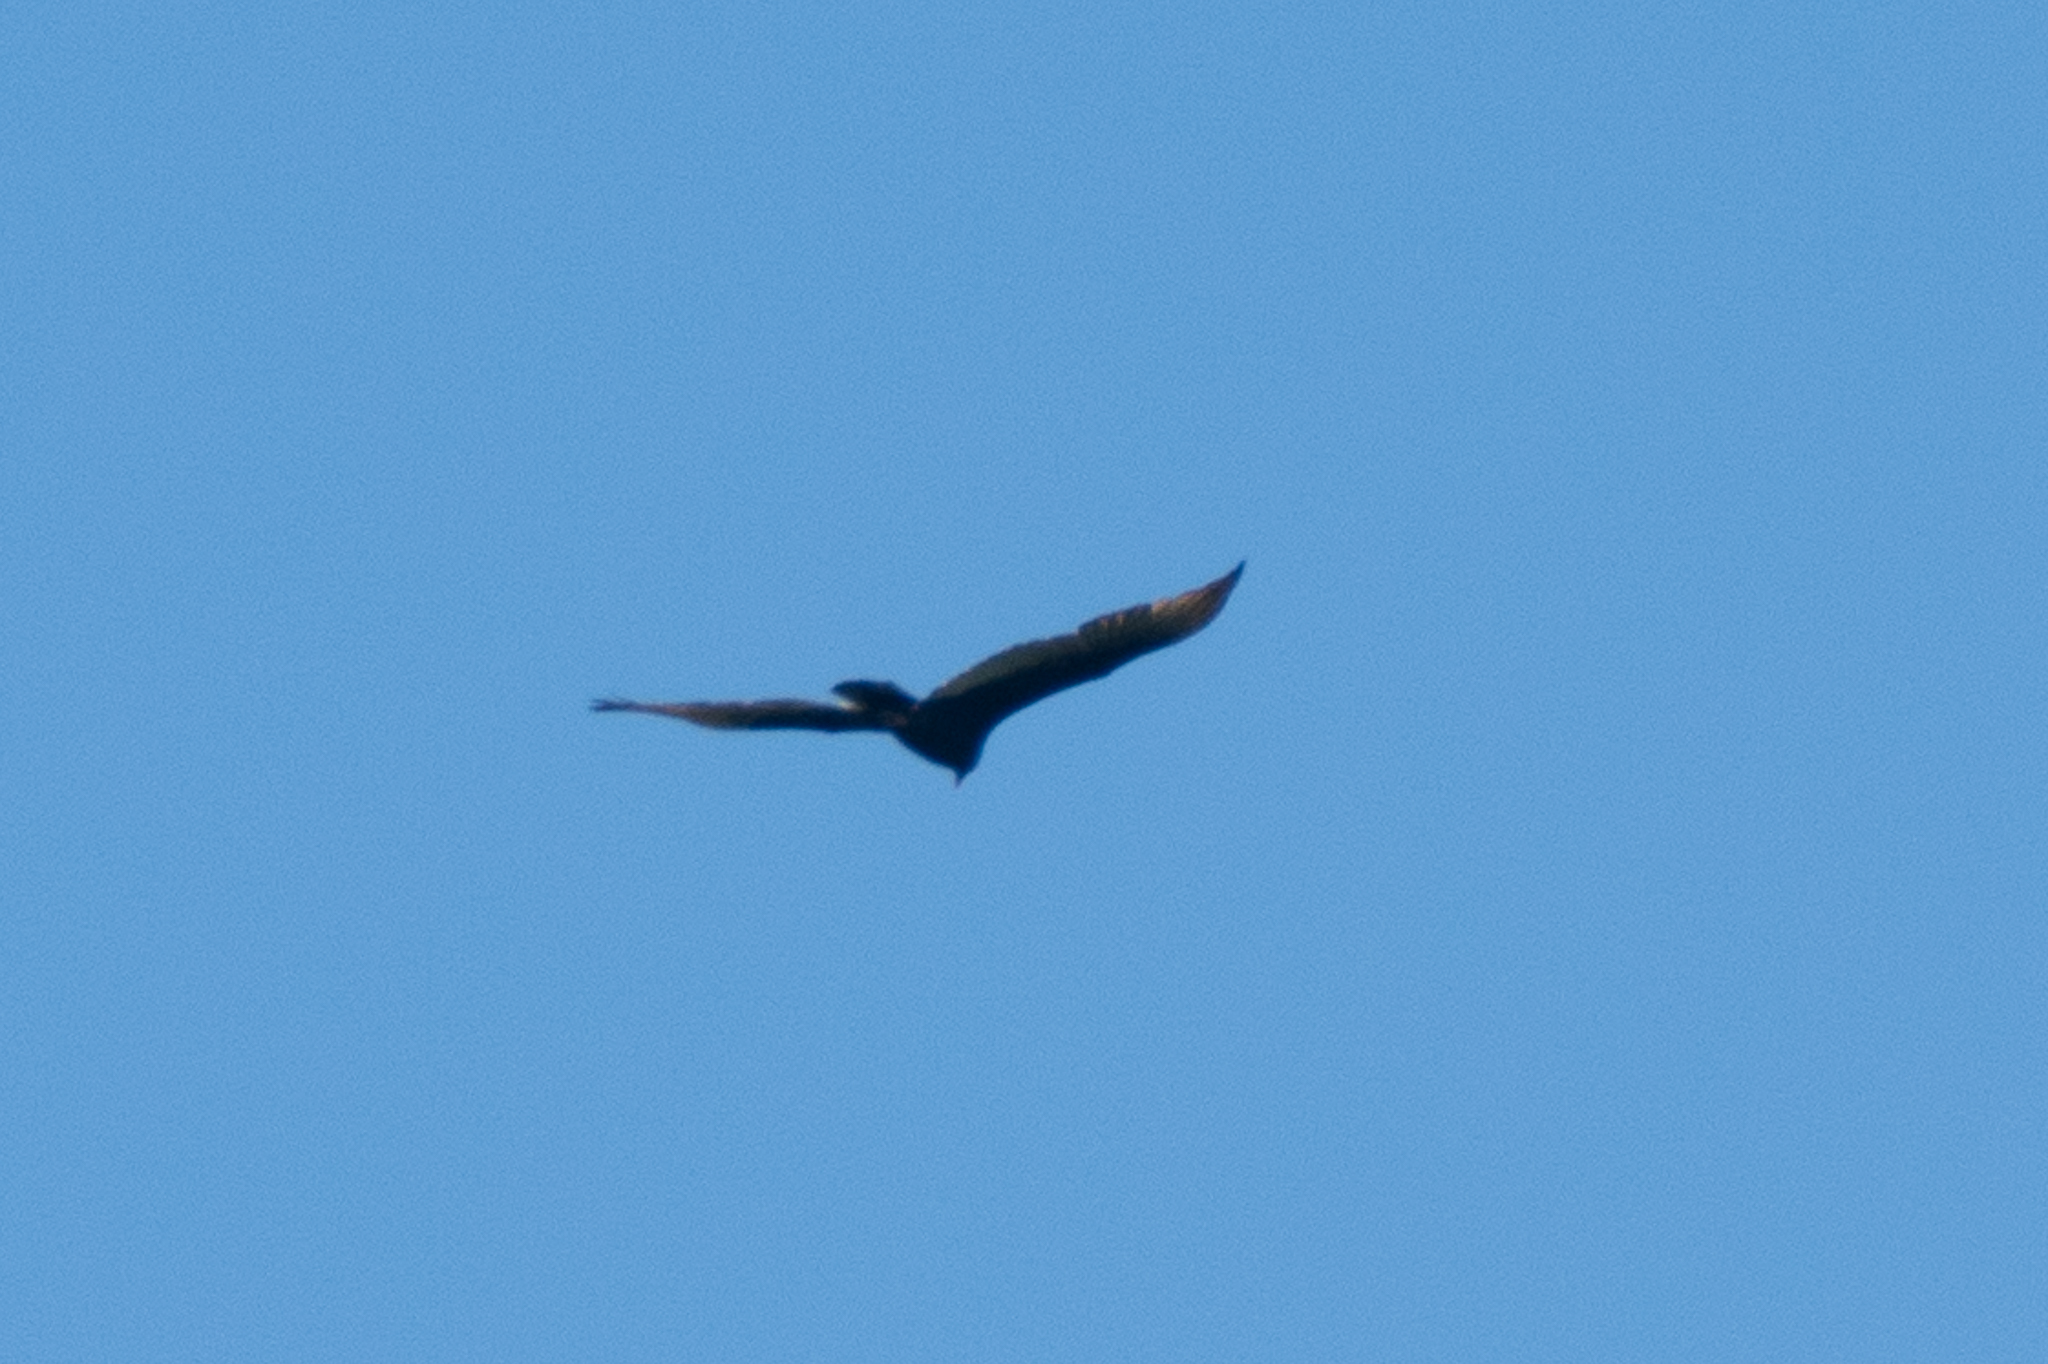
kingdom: Animalia
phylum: Chordata
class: Aves
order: Accipitriformes
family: Cathartidae
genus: Cathartes
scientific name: Cathartes aura
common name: Turkey vulture
